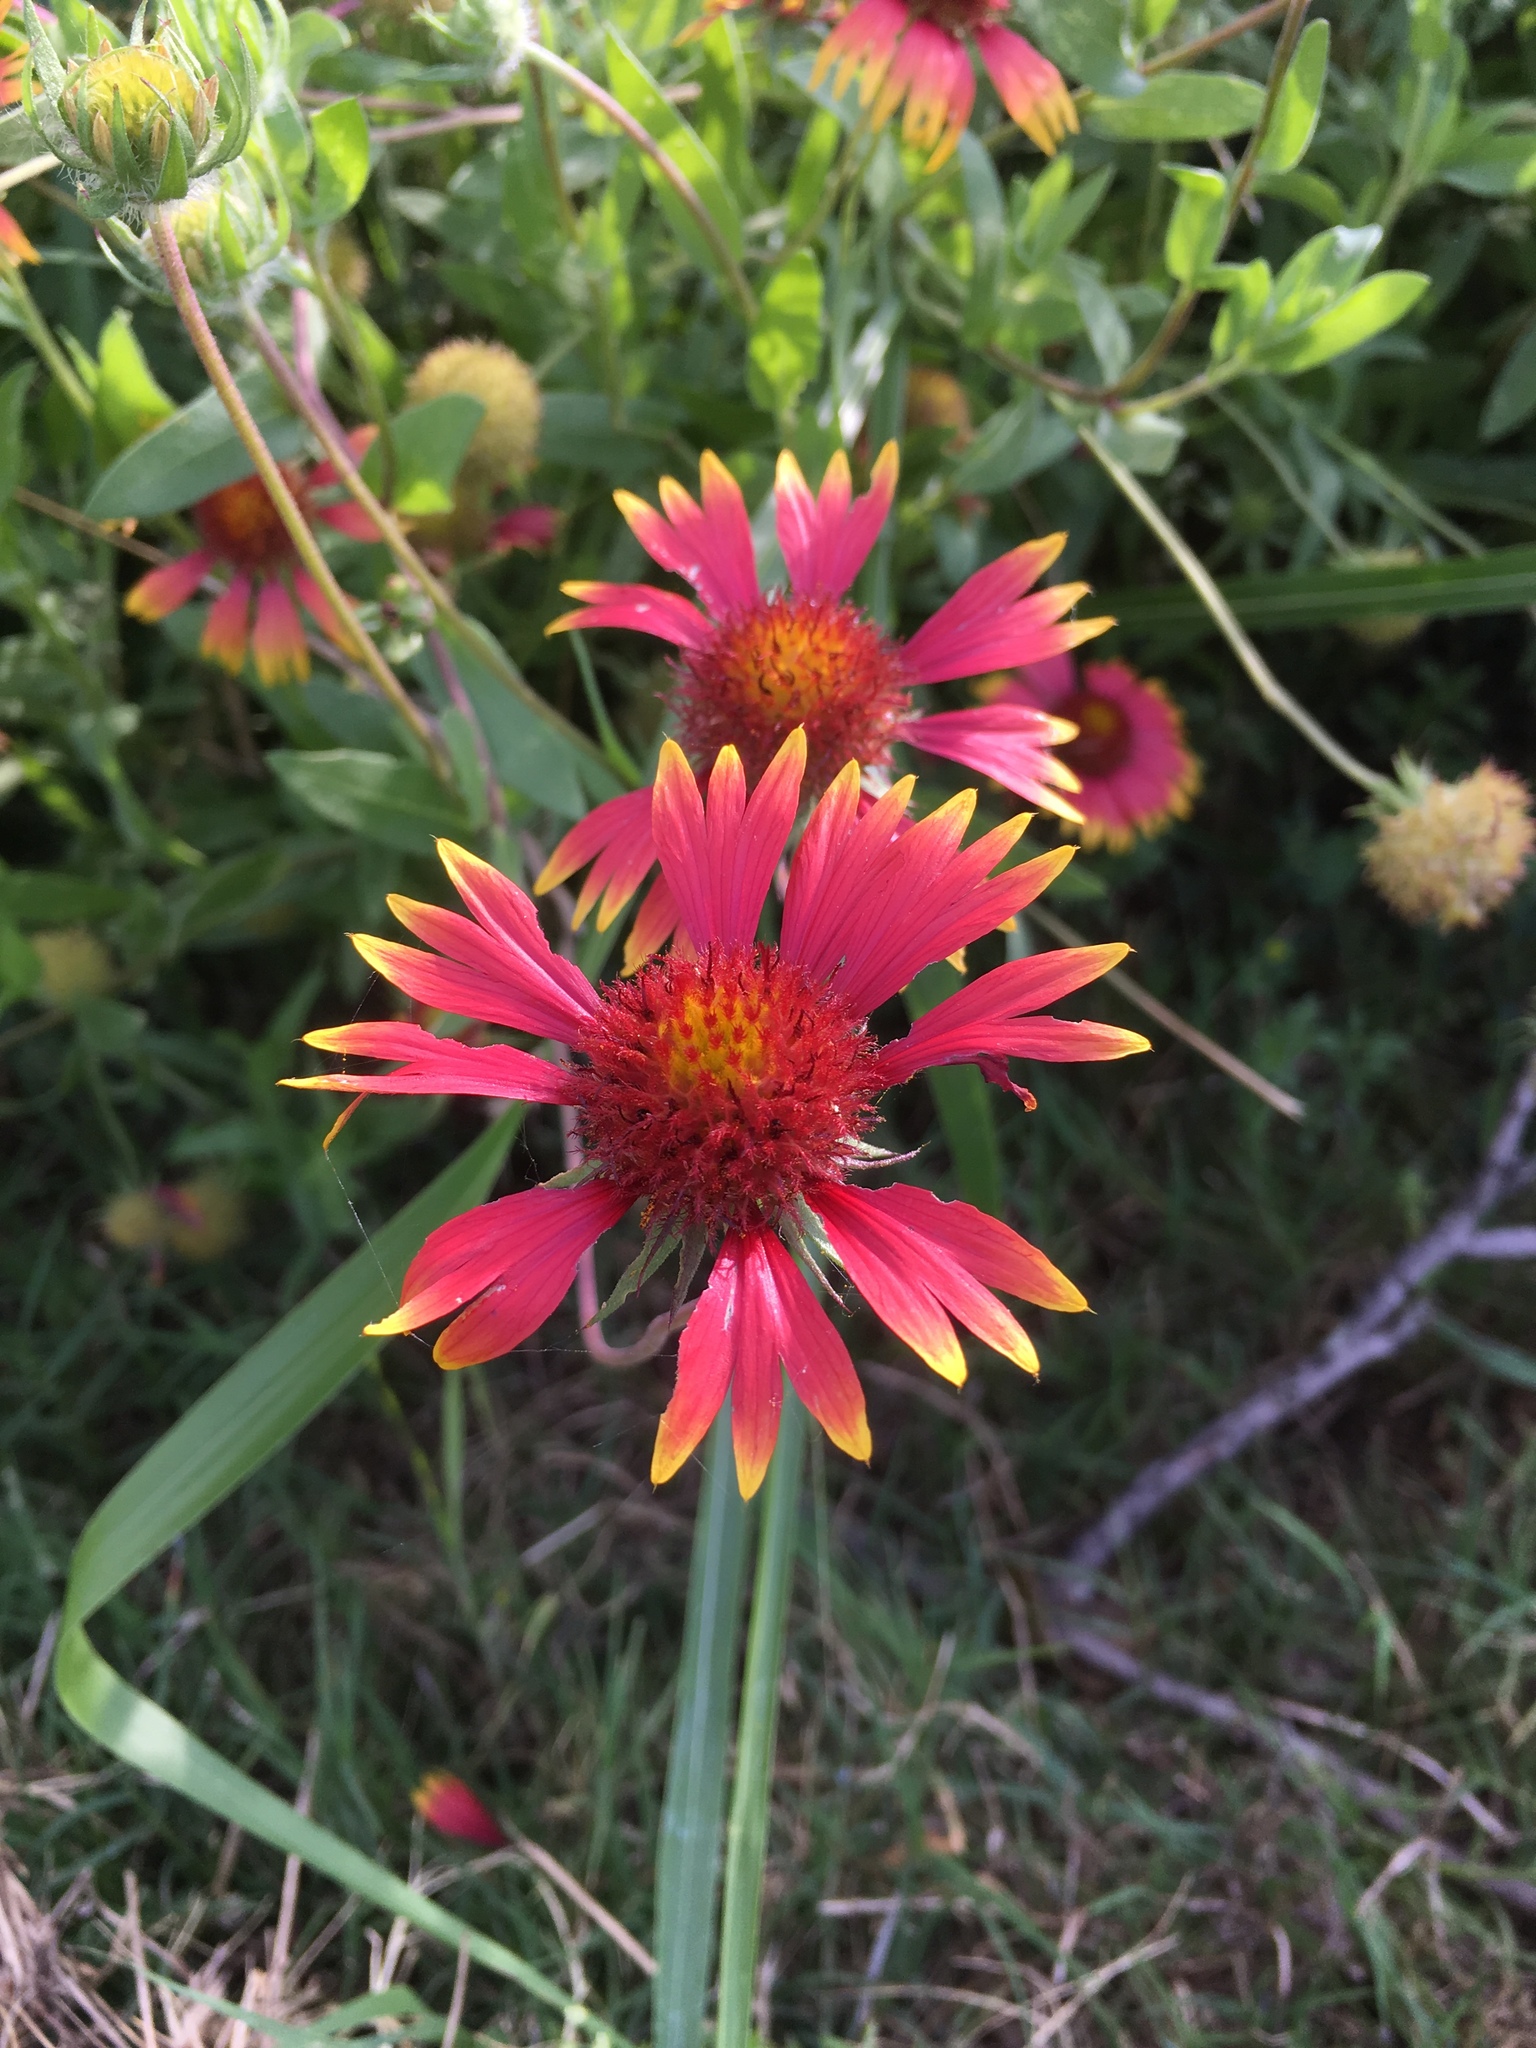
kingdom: Plantae
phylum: Tracheophyta
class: Magnoliopsida
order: Asterales
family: Asteraceae
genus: Gaillardia
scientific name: Gaillardia pulchella
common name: Firewheel
